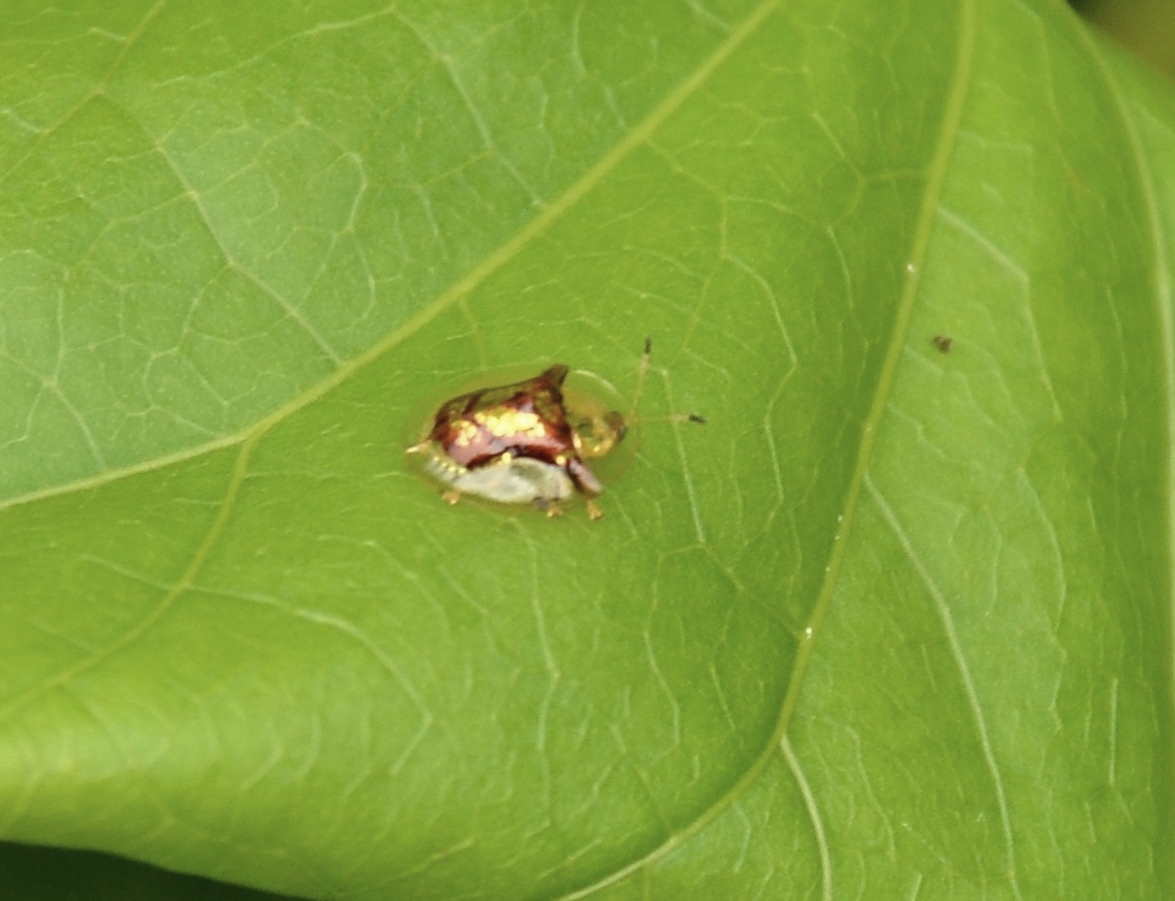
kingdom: Animalia
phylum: Arthropoda
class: Insecta
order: Coleoptera
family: Chrysomelidae
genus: Aspidimorpha
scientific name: Aspidimorpha furcata
